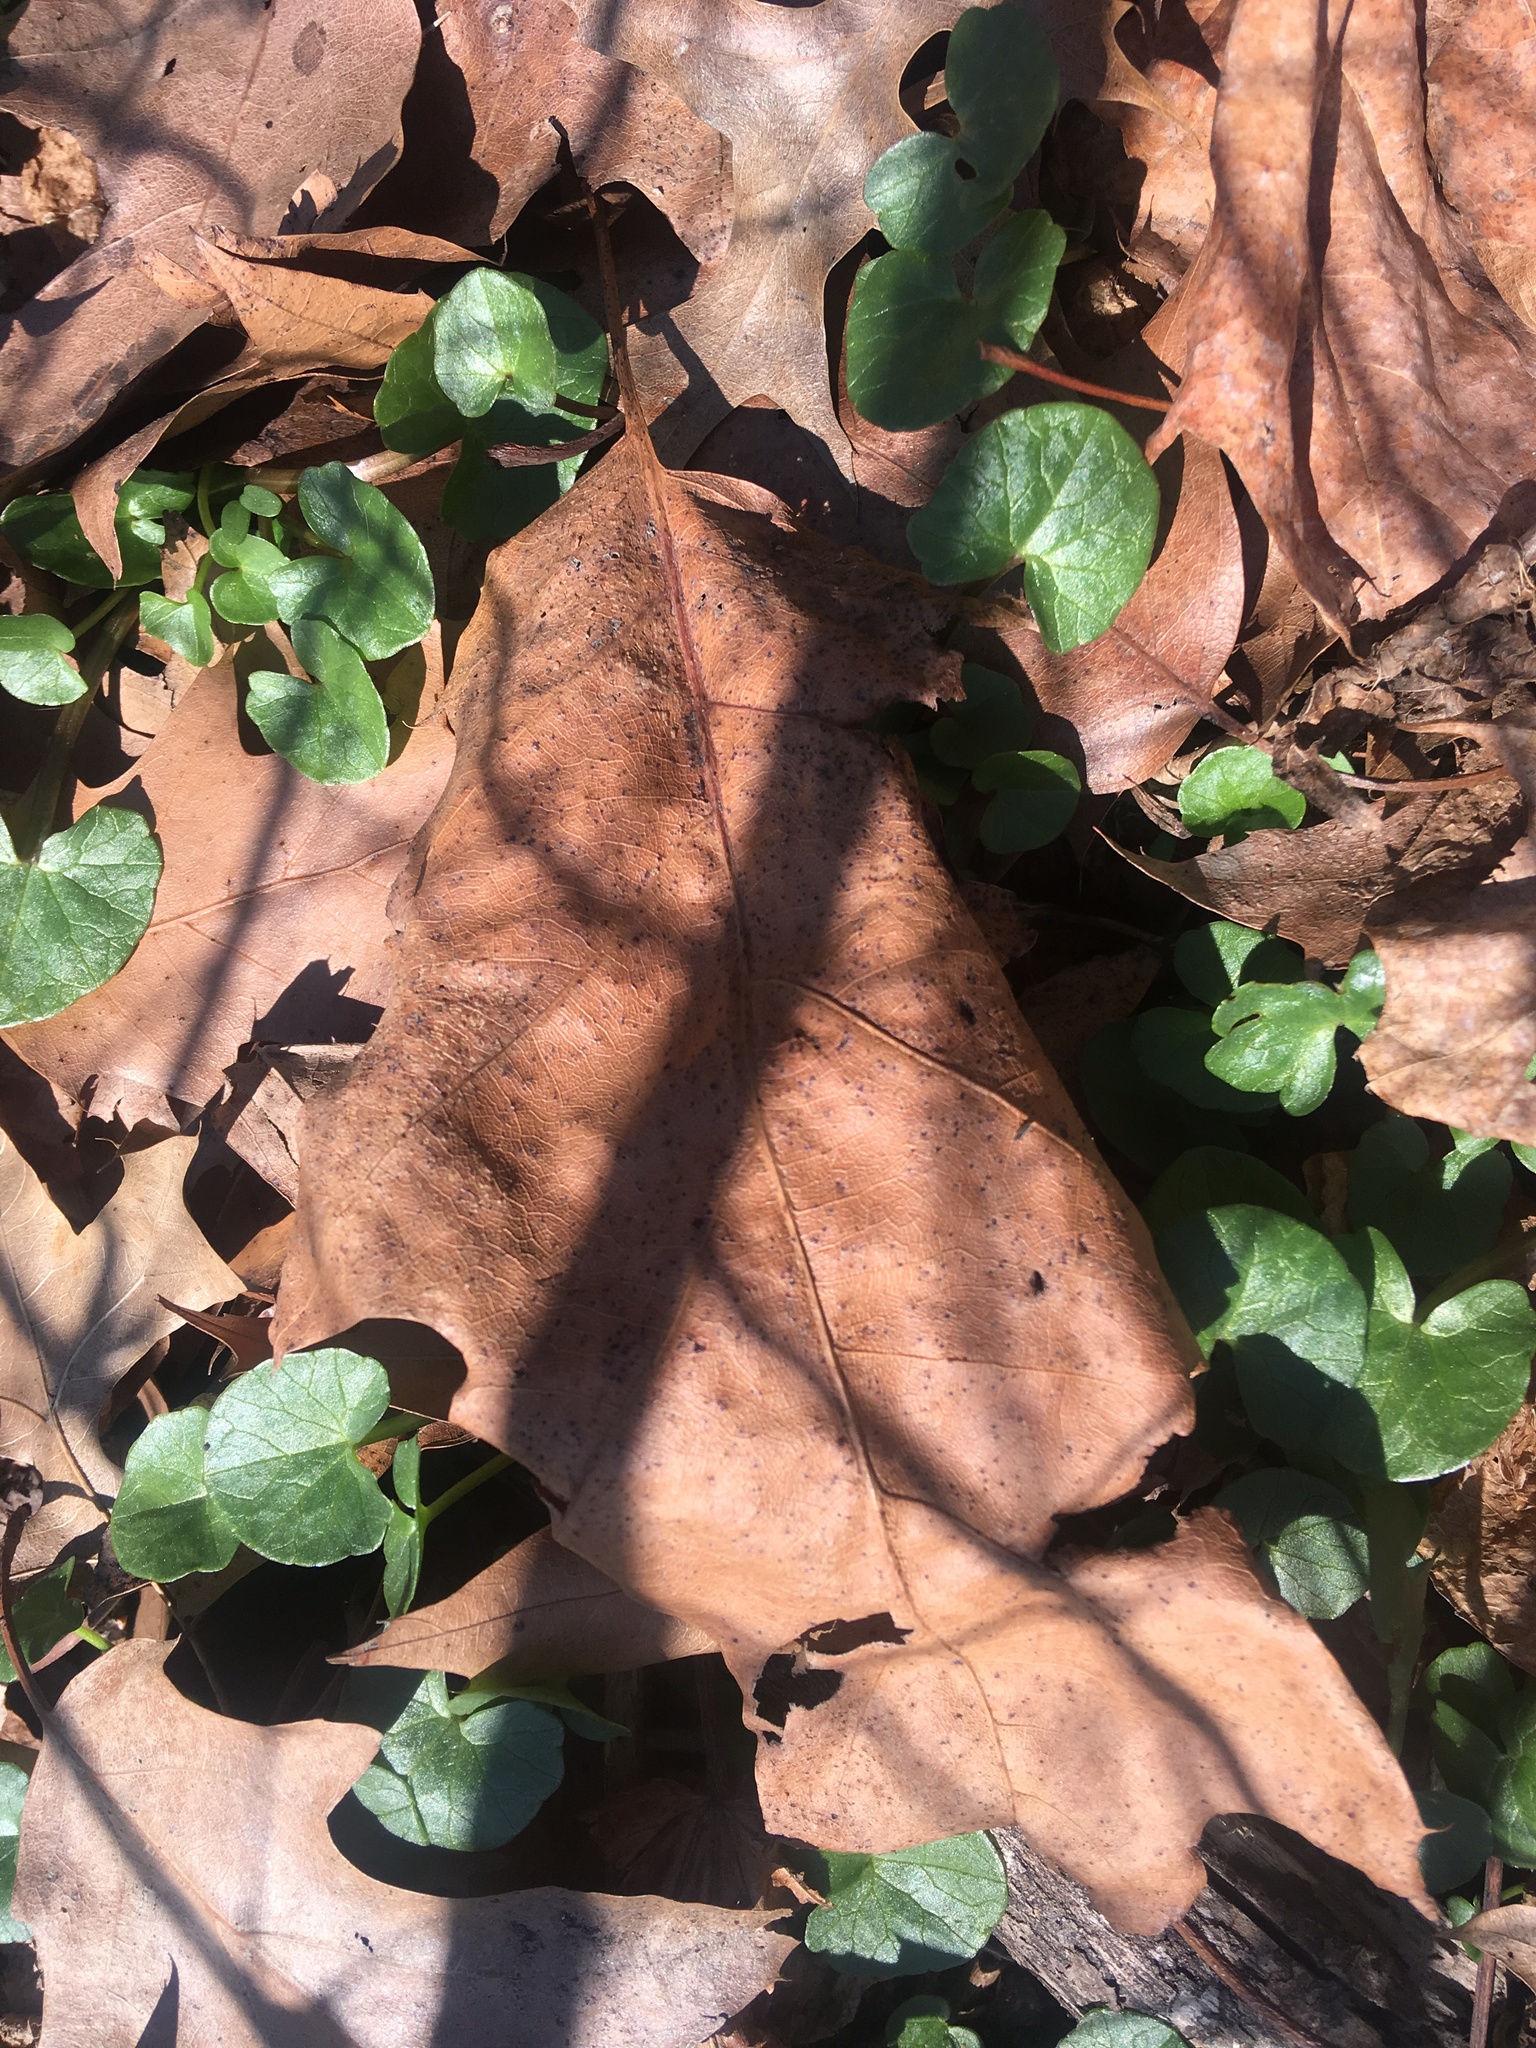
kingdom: Plantae
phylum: Tracheophyta
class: Magnoliopsida
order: Ranunculales
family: Ranunculaceae
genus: Ficaria
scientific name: Ficaria verna
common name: Lesser celandine
